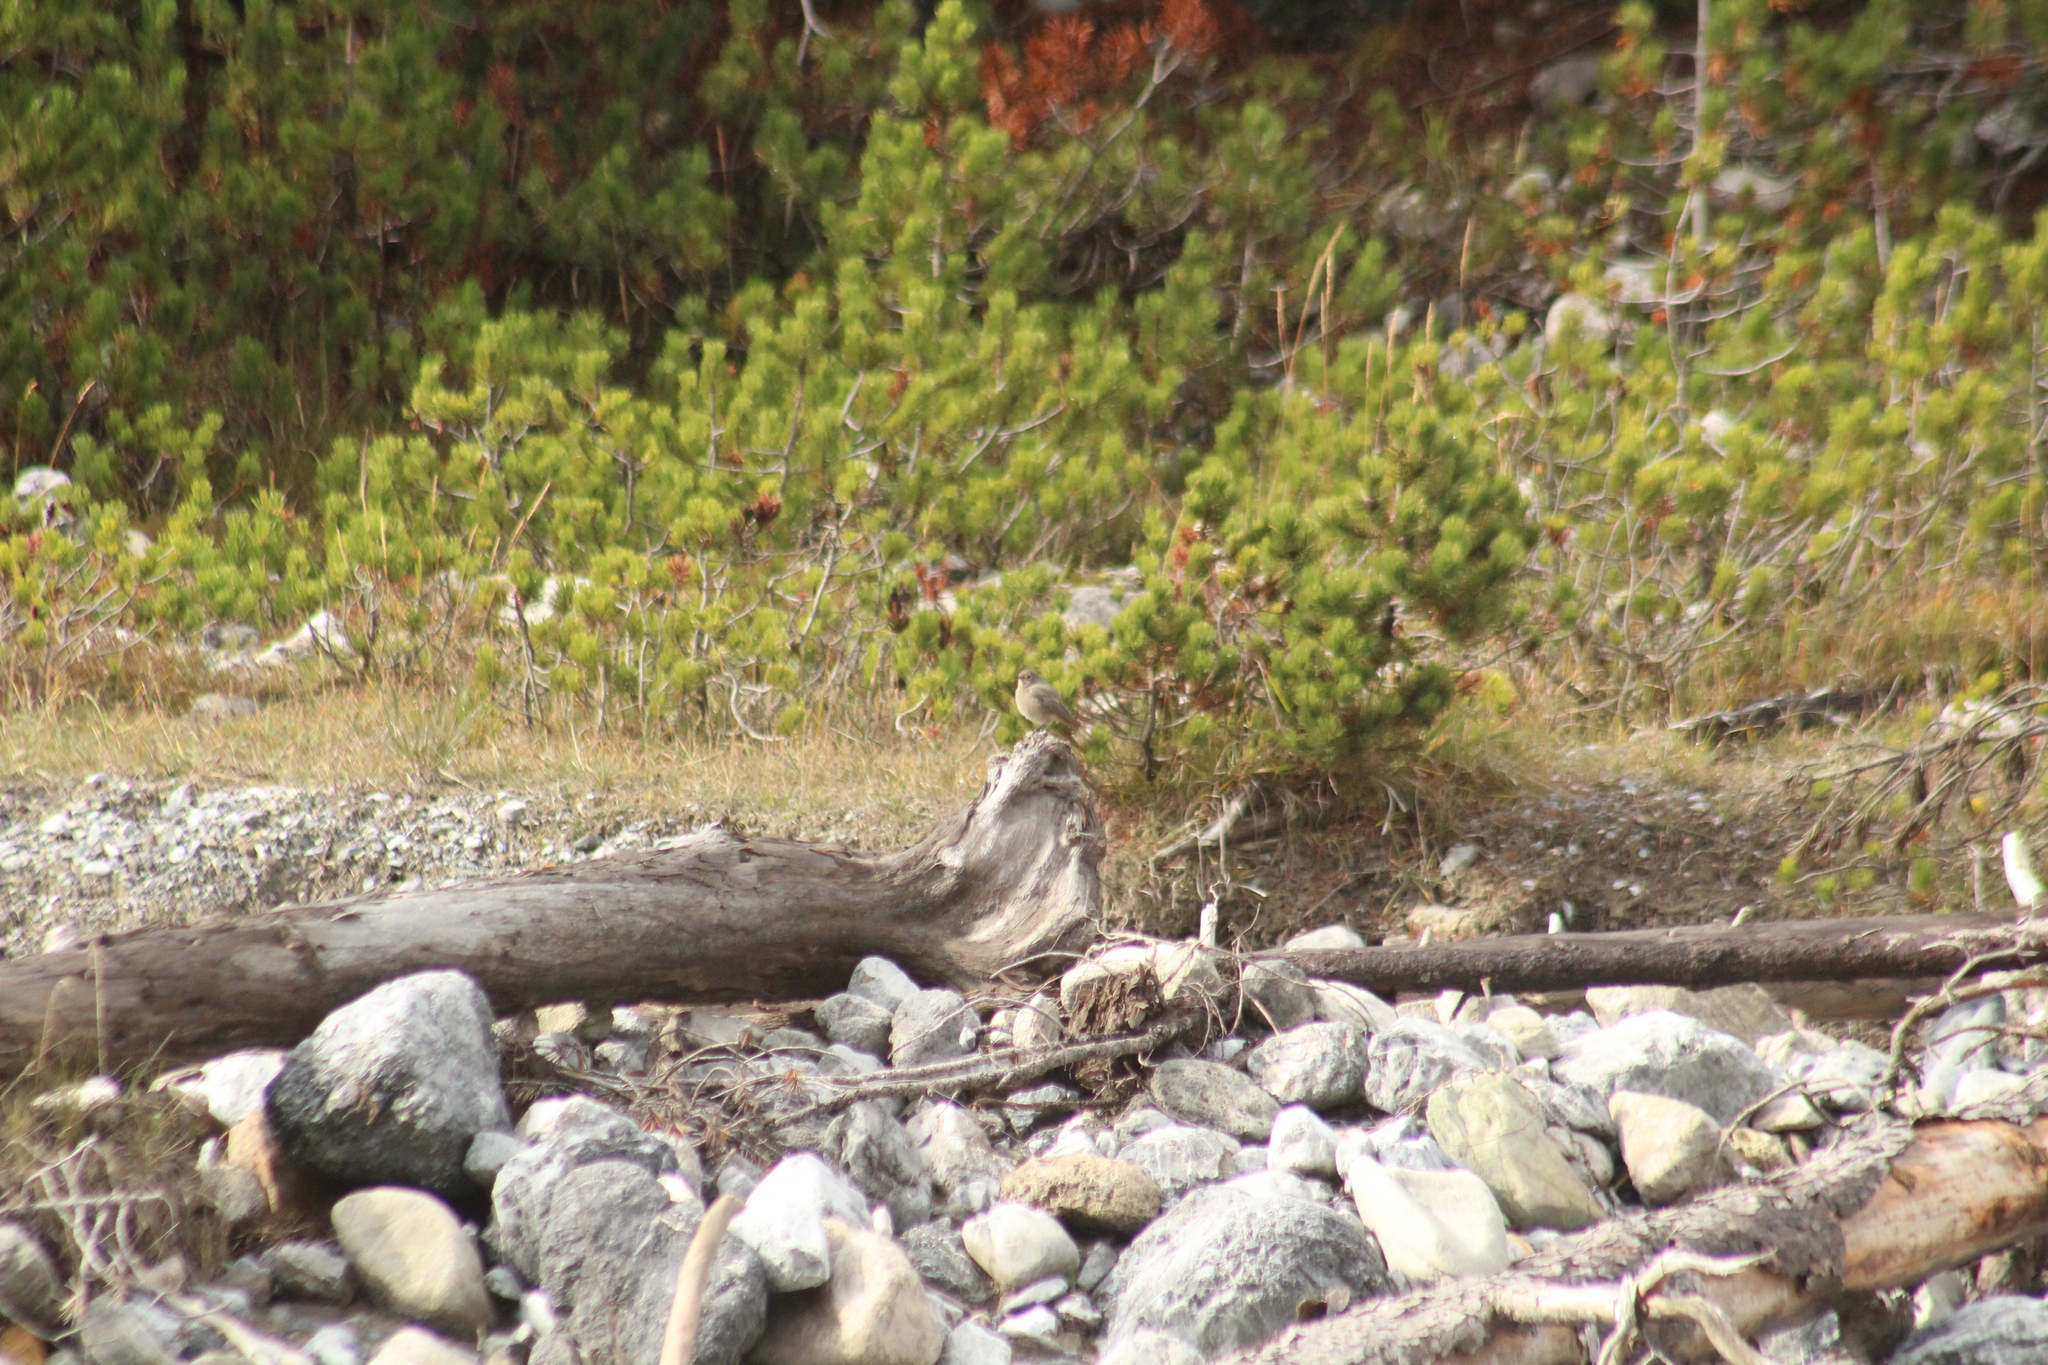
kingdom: Animalia
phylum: Chordata
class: Aves
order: Passeriformes
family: Muscicapidae
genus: Phoenicurus
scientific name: Phoenicurus ochruros
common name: Black redstart
